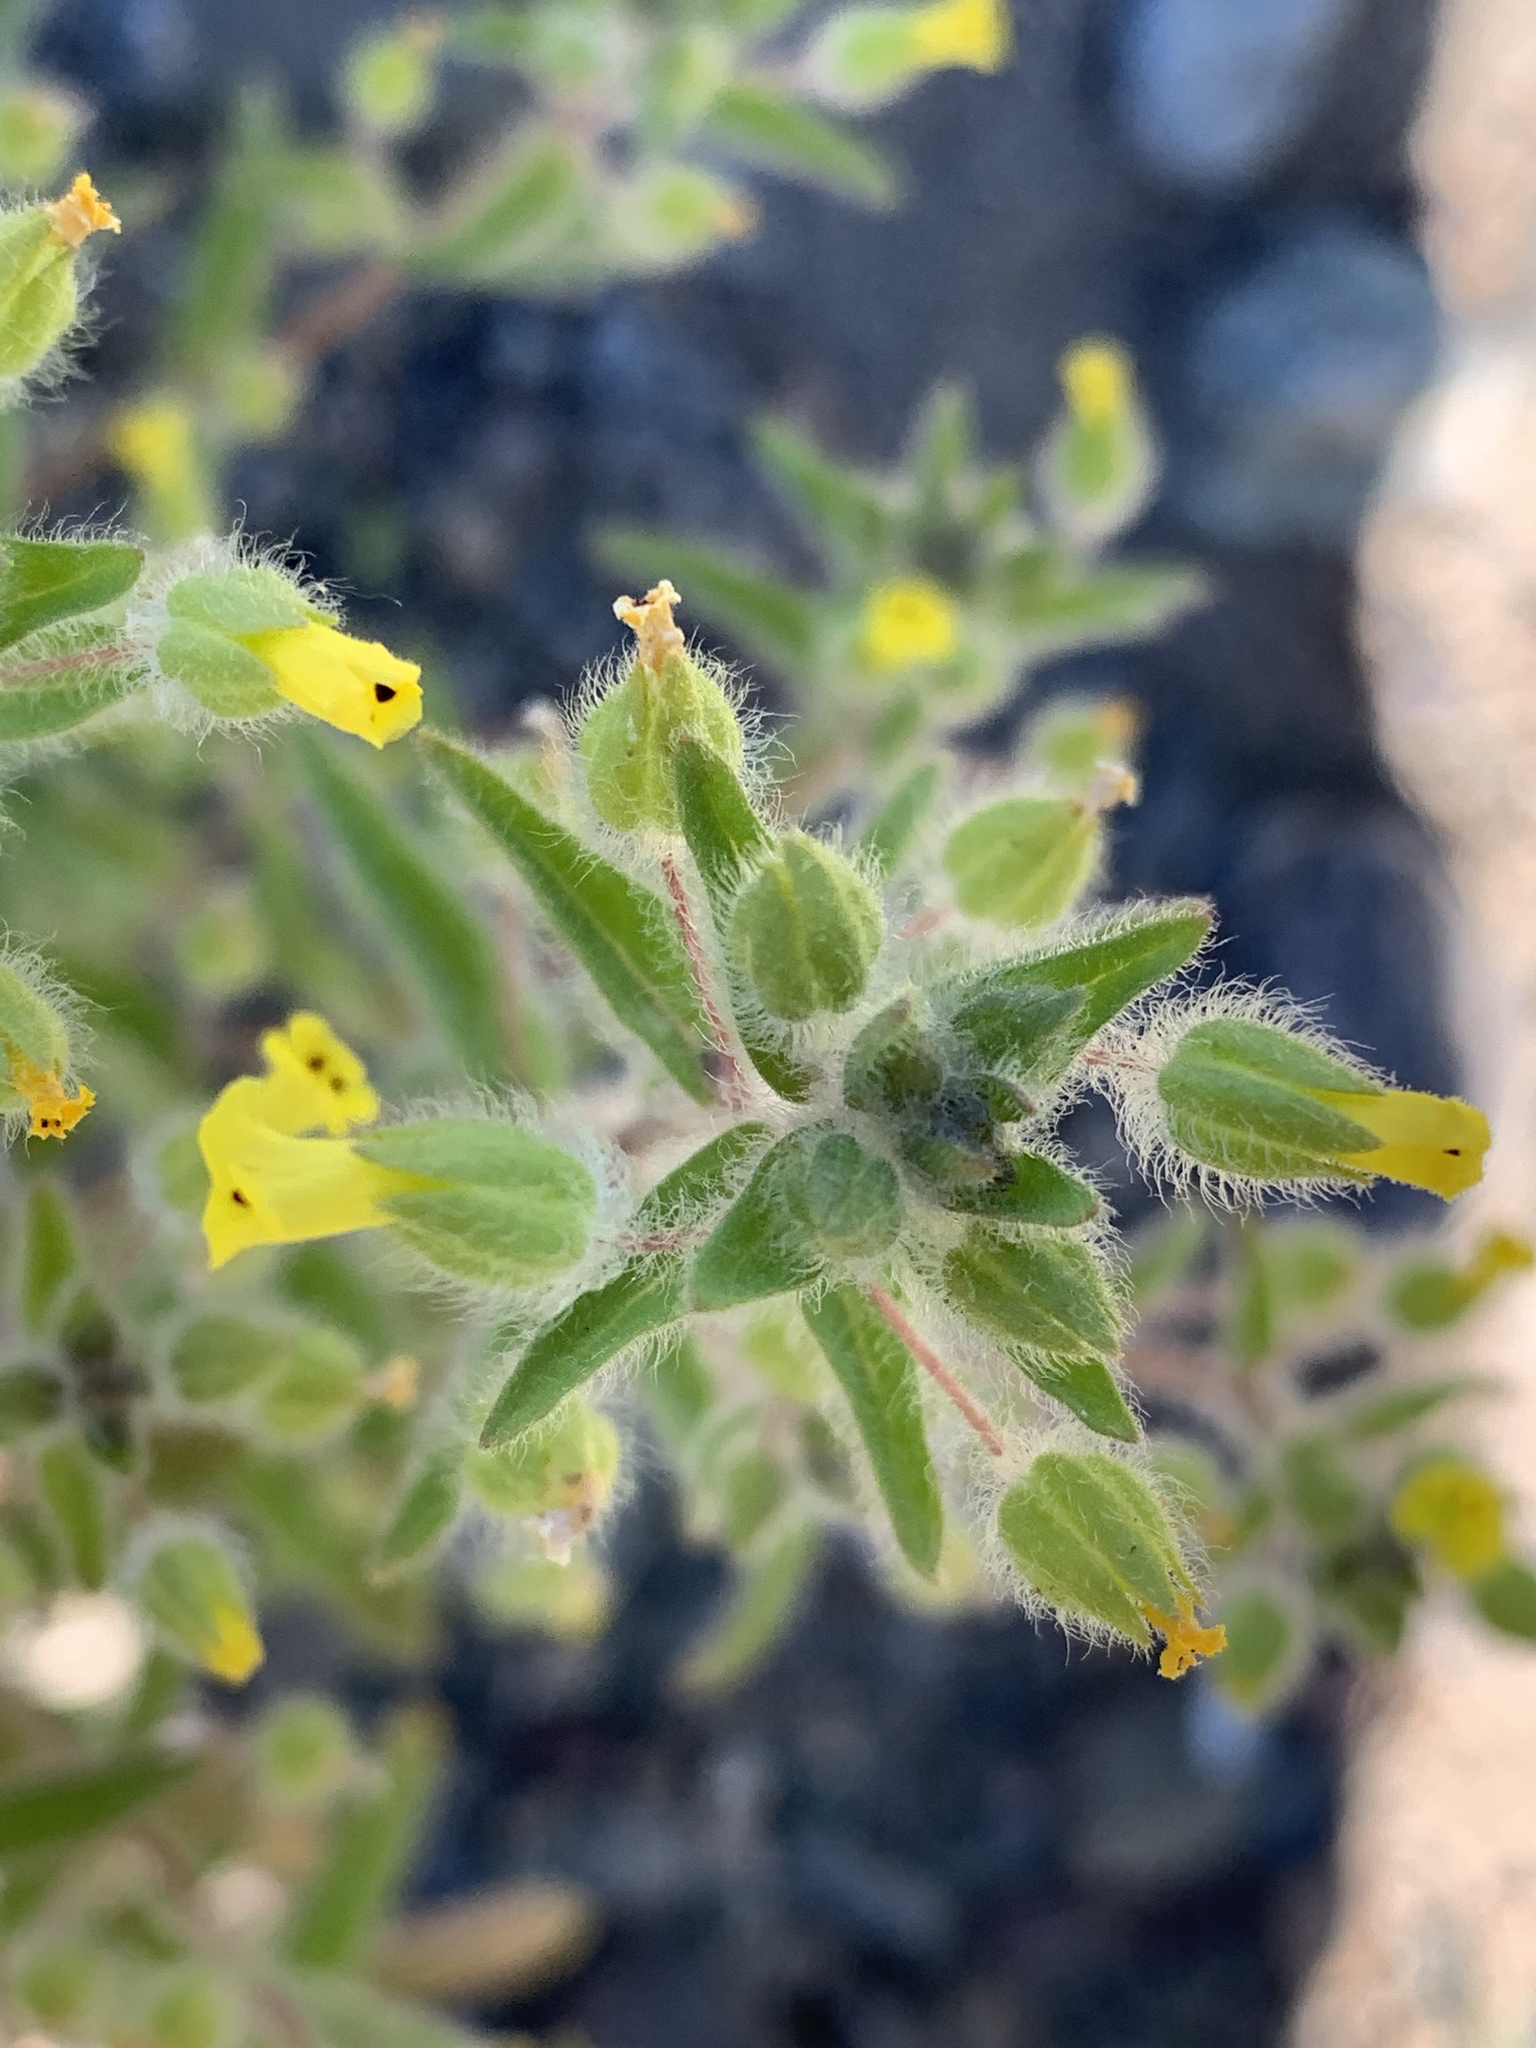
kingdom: Plantae
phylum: Tracheophyta
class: Magnoliopsida
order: Lamiales
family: Phrymaceae
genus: Mimetanthe
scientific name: Mimetanthe pilosa
